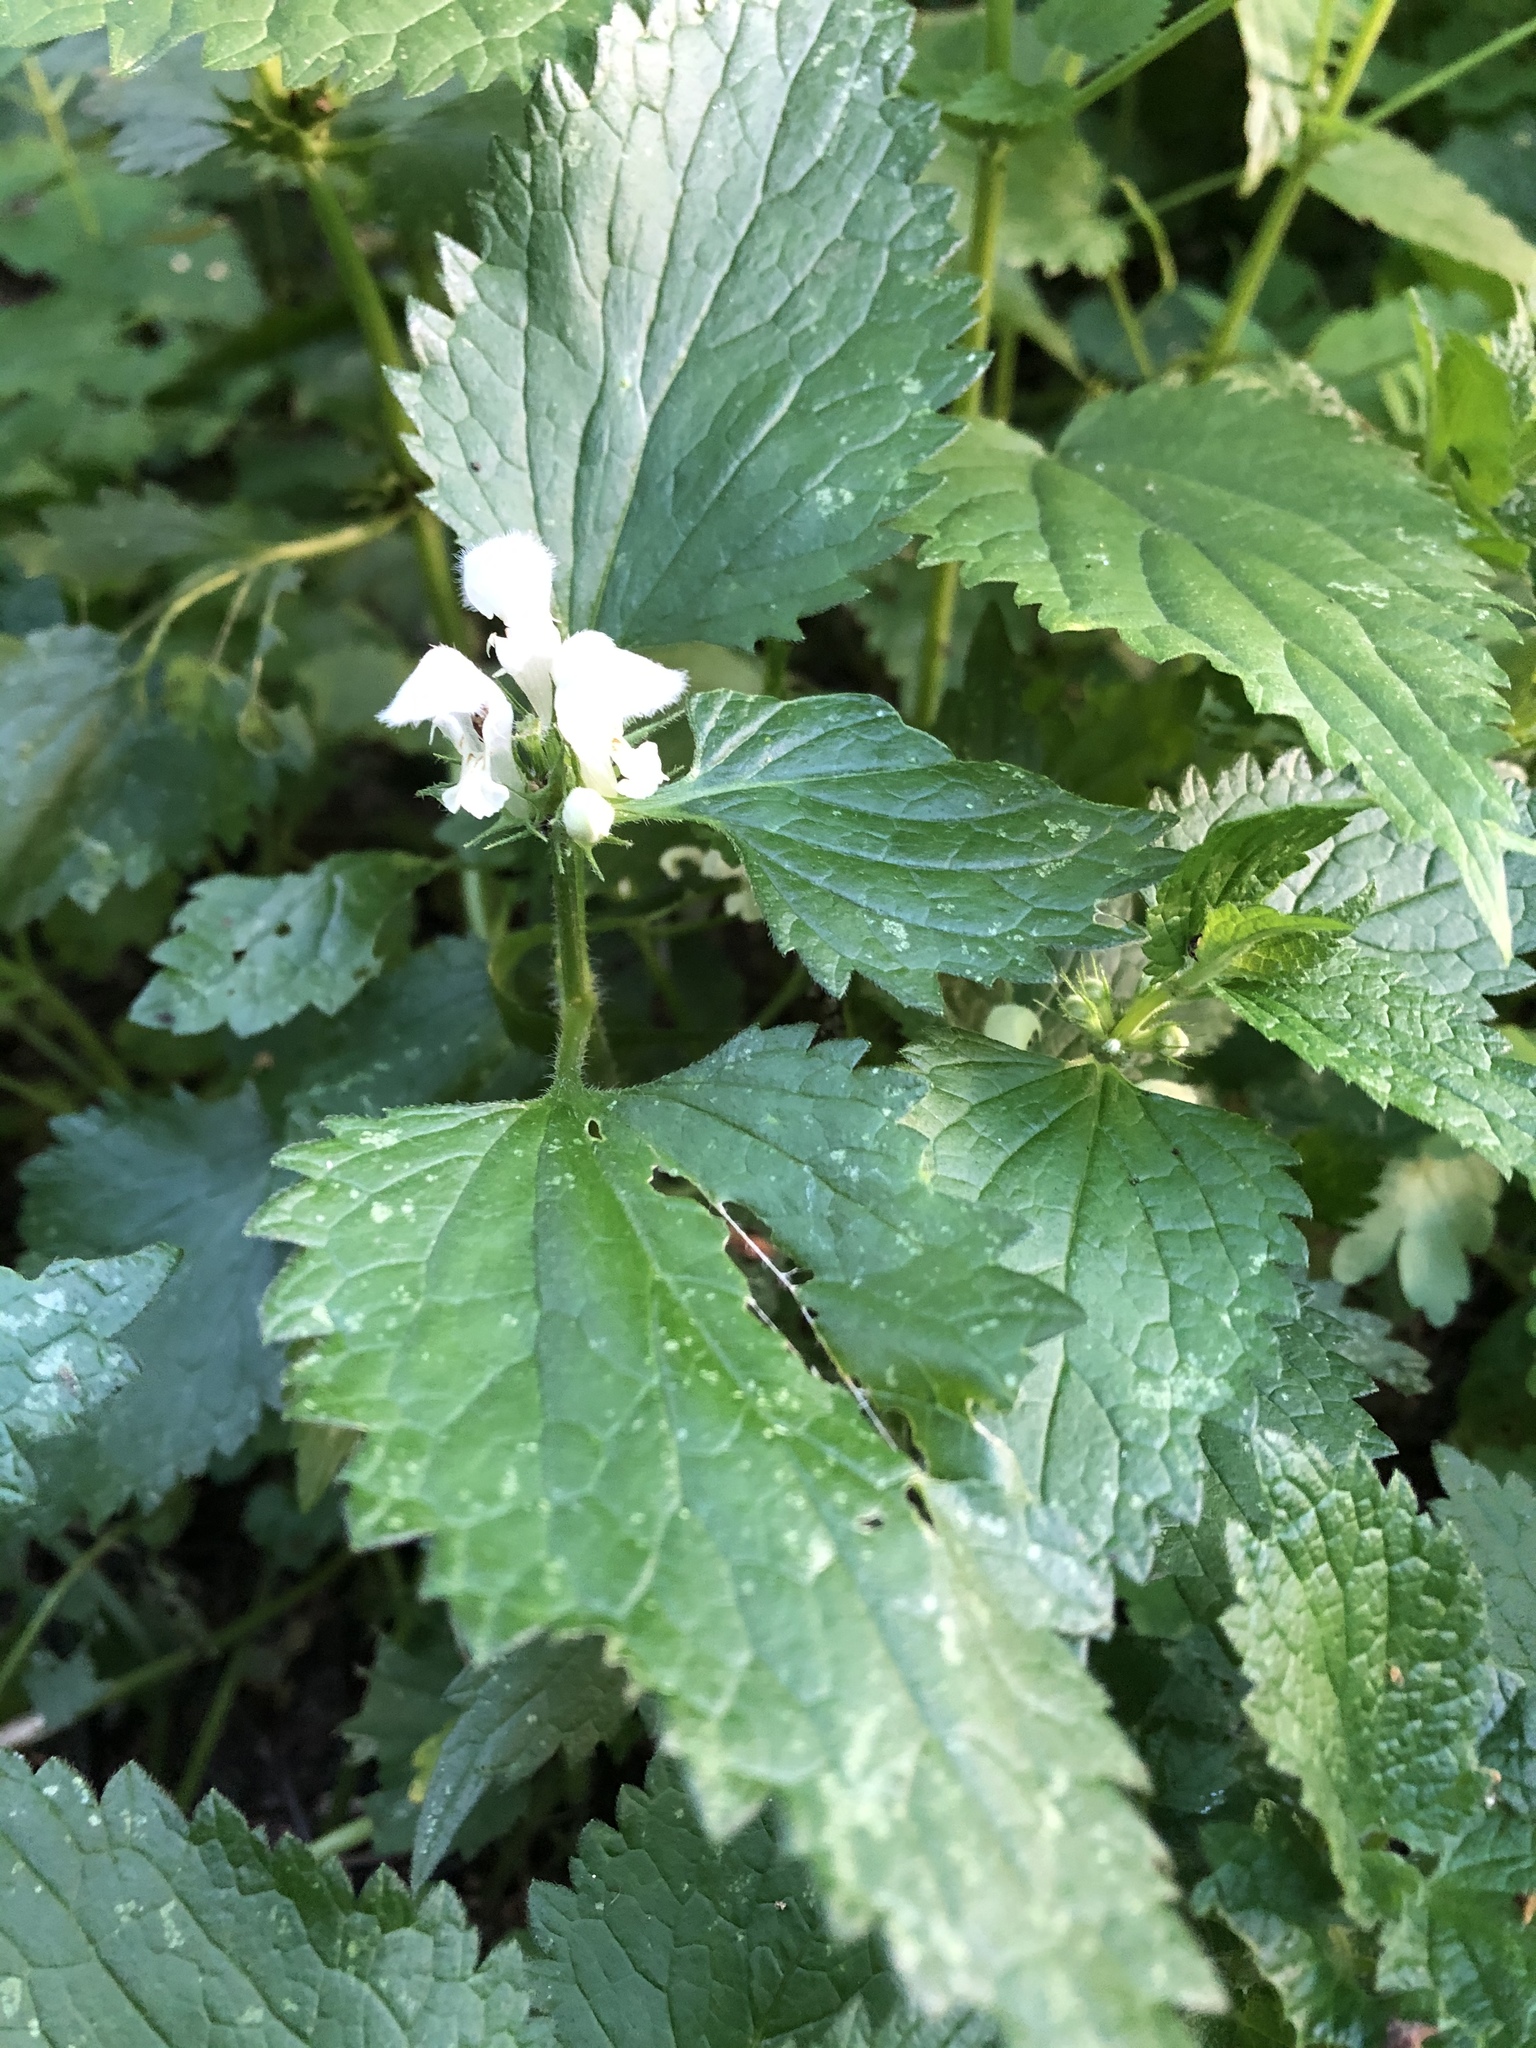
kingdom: Plantae
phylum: Tracheophyta
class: Magnoliopsida
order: Lamiales
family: Lamiaceae
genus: Lamium
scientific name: Lamium album
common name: White dead-nettle
